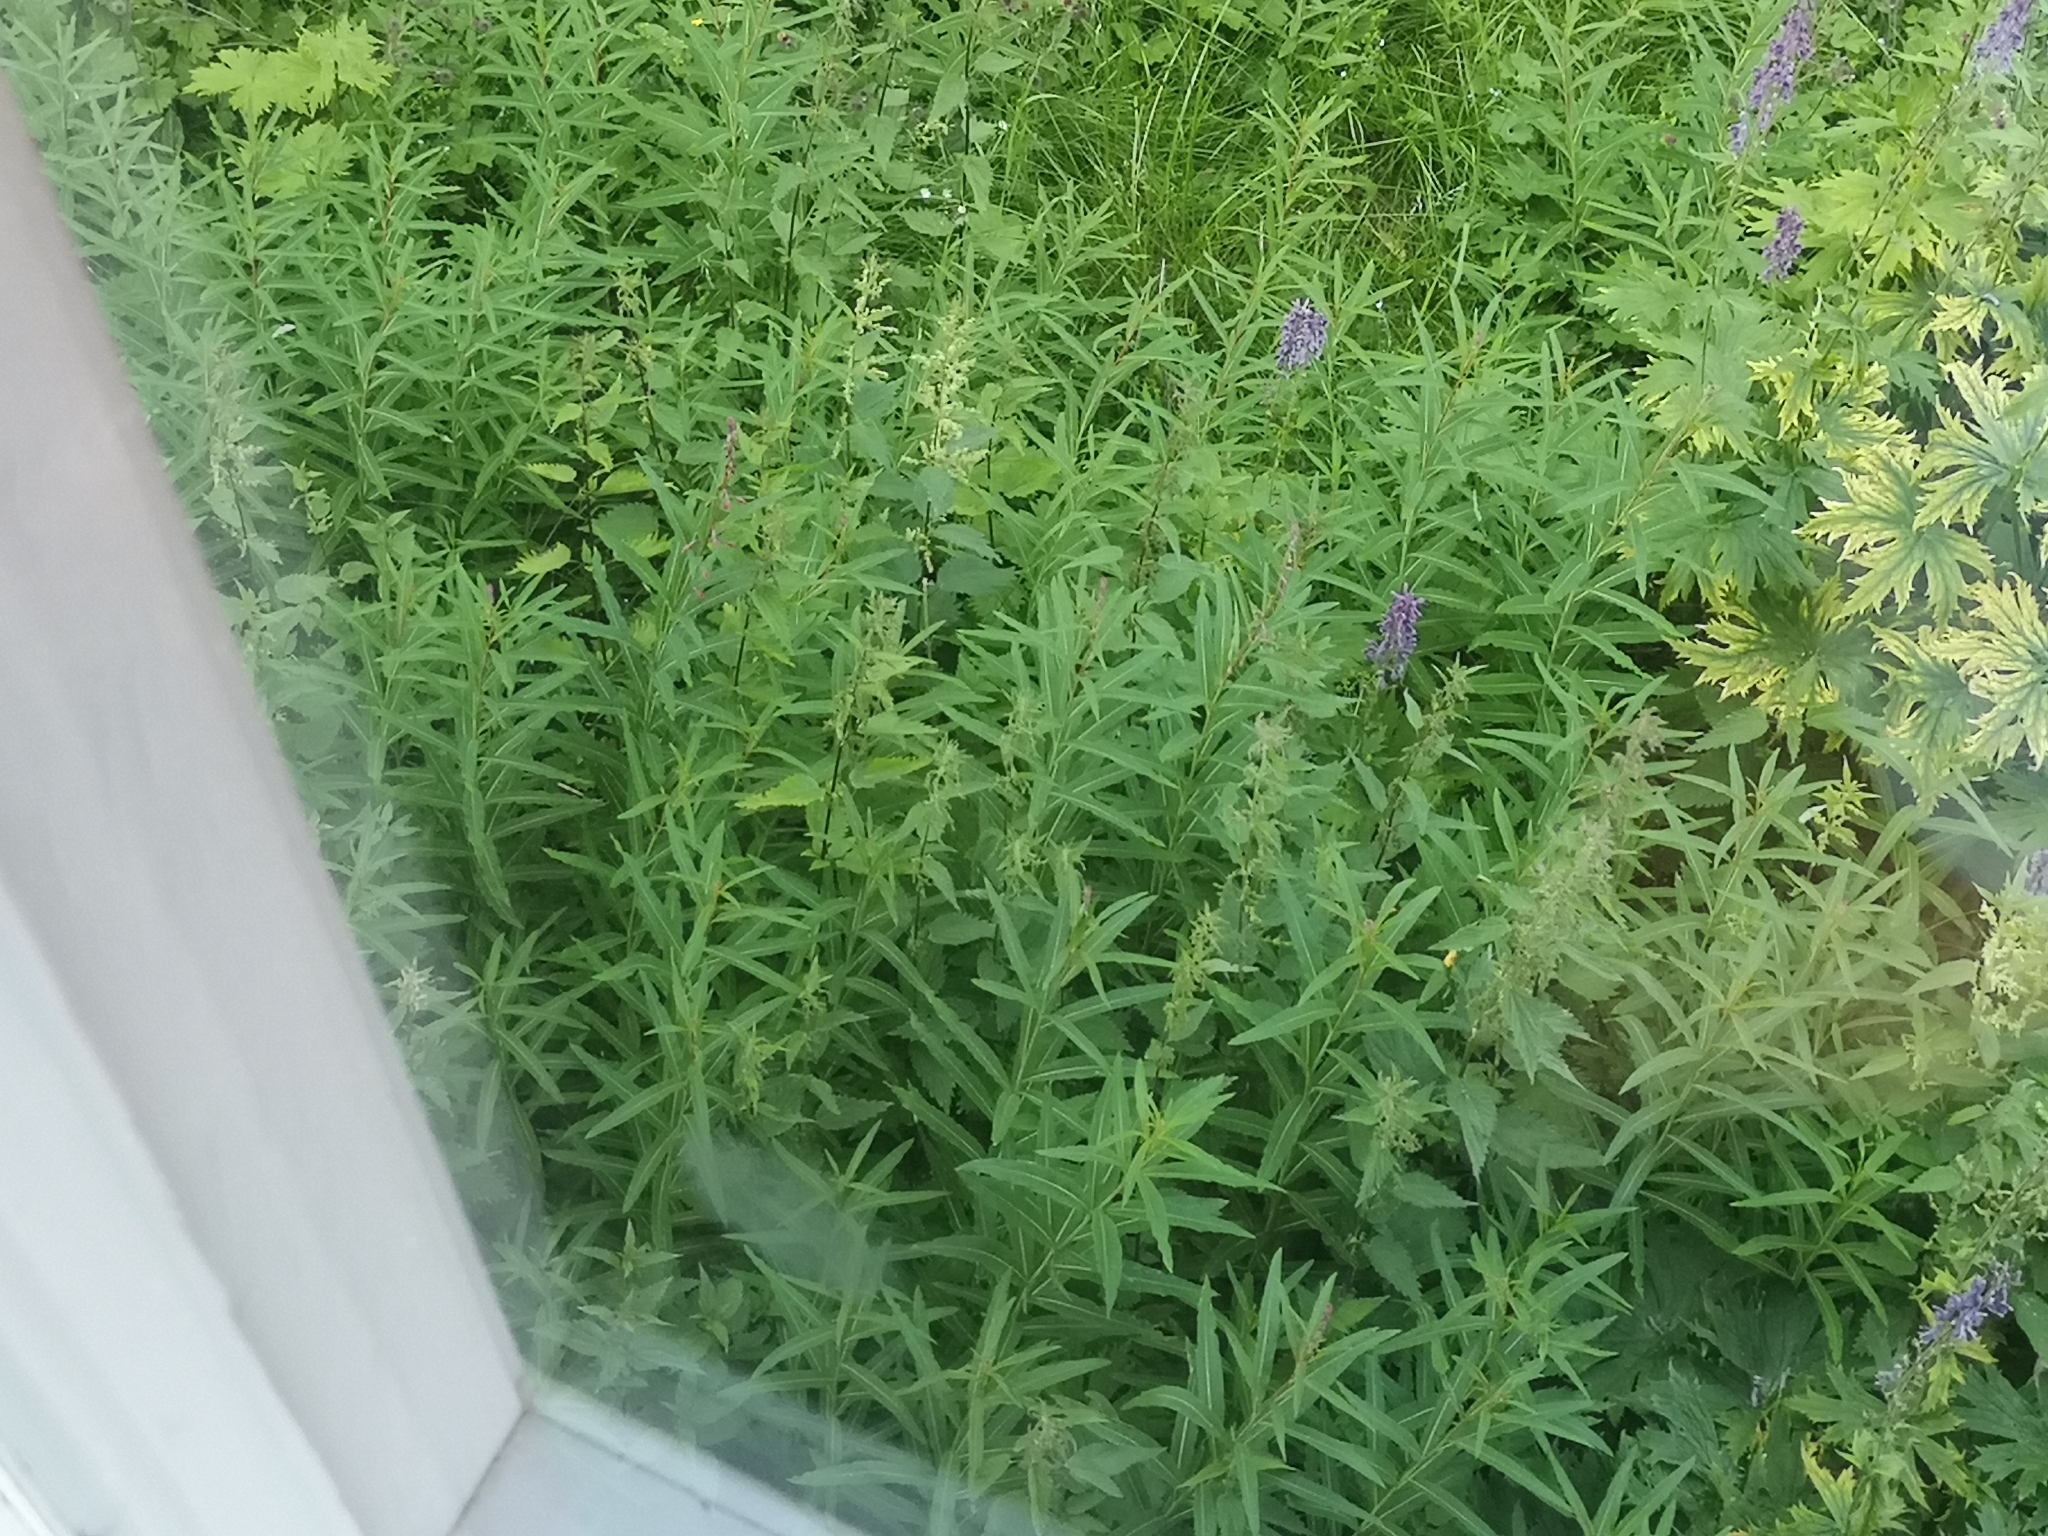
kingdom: Plantae
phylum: Tracheophyta
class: Magnoliopsida
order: Myrtales
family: Onagraceae
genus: Chamaenerion
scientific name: Chamaenerion angustifolium
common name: Fireweed
